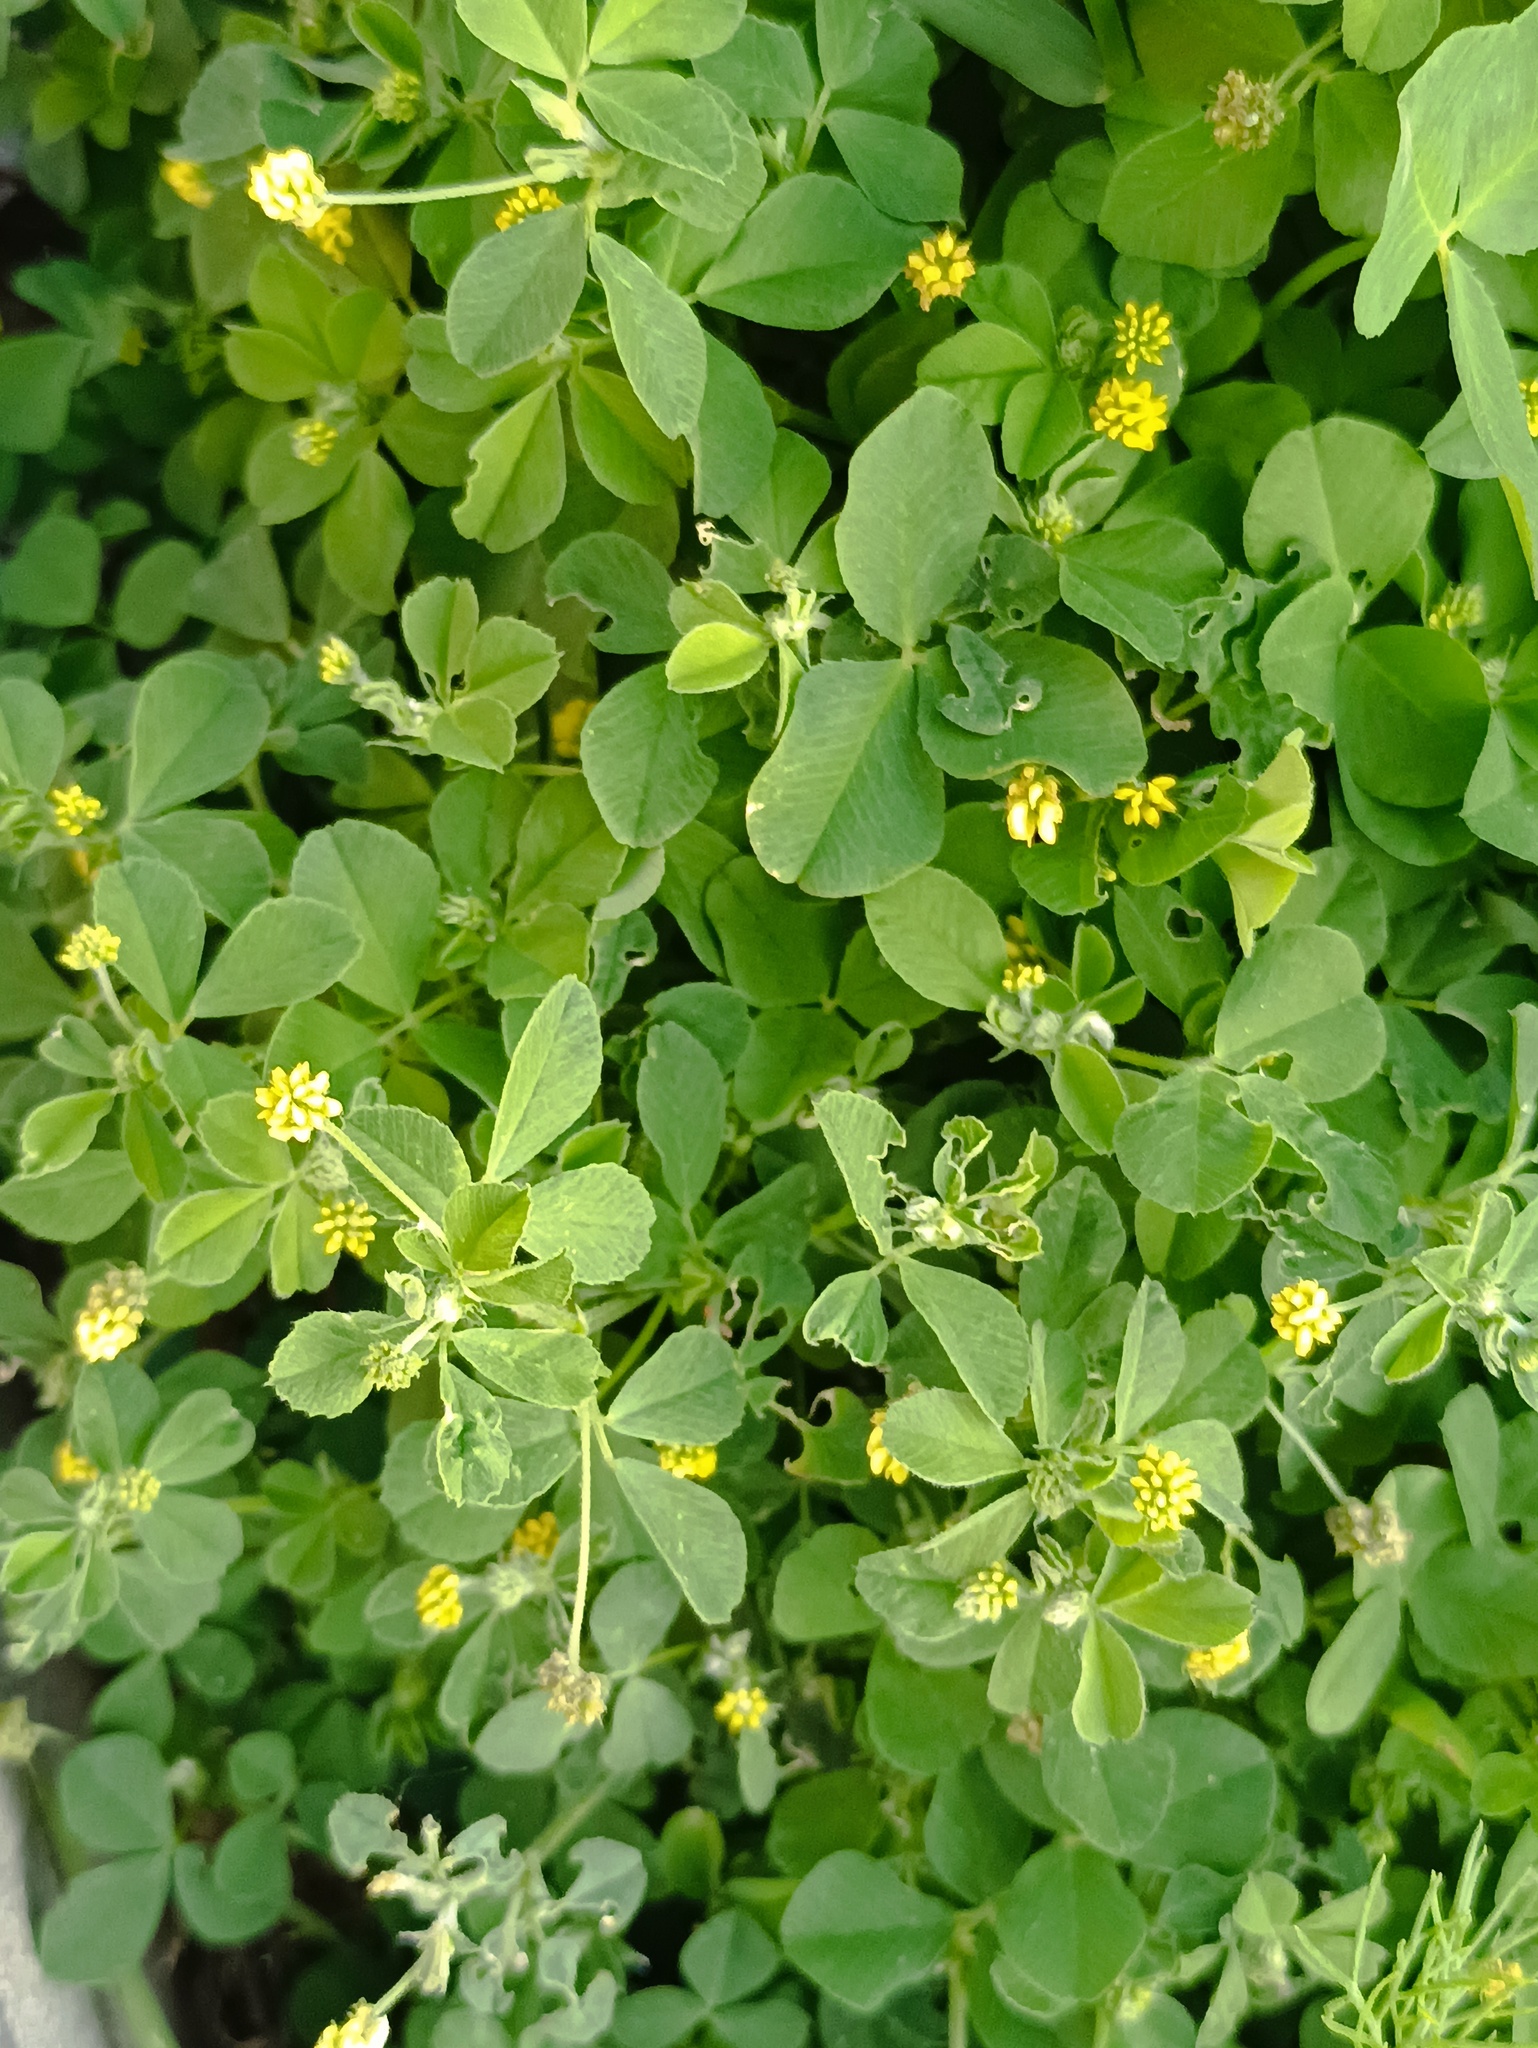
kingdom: Plantae
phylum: Tracheophyta
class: Magnoliopsida
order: Fabales
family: Fabaceae
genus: Medicago
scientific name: Medicago lupulina
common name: Black medick
